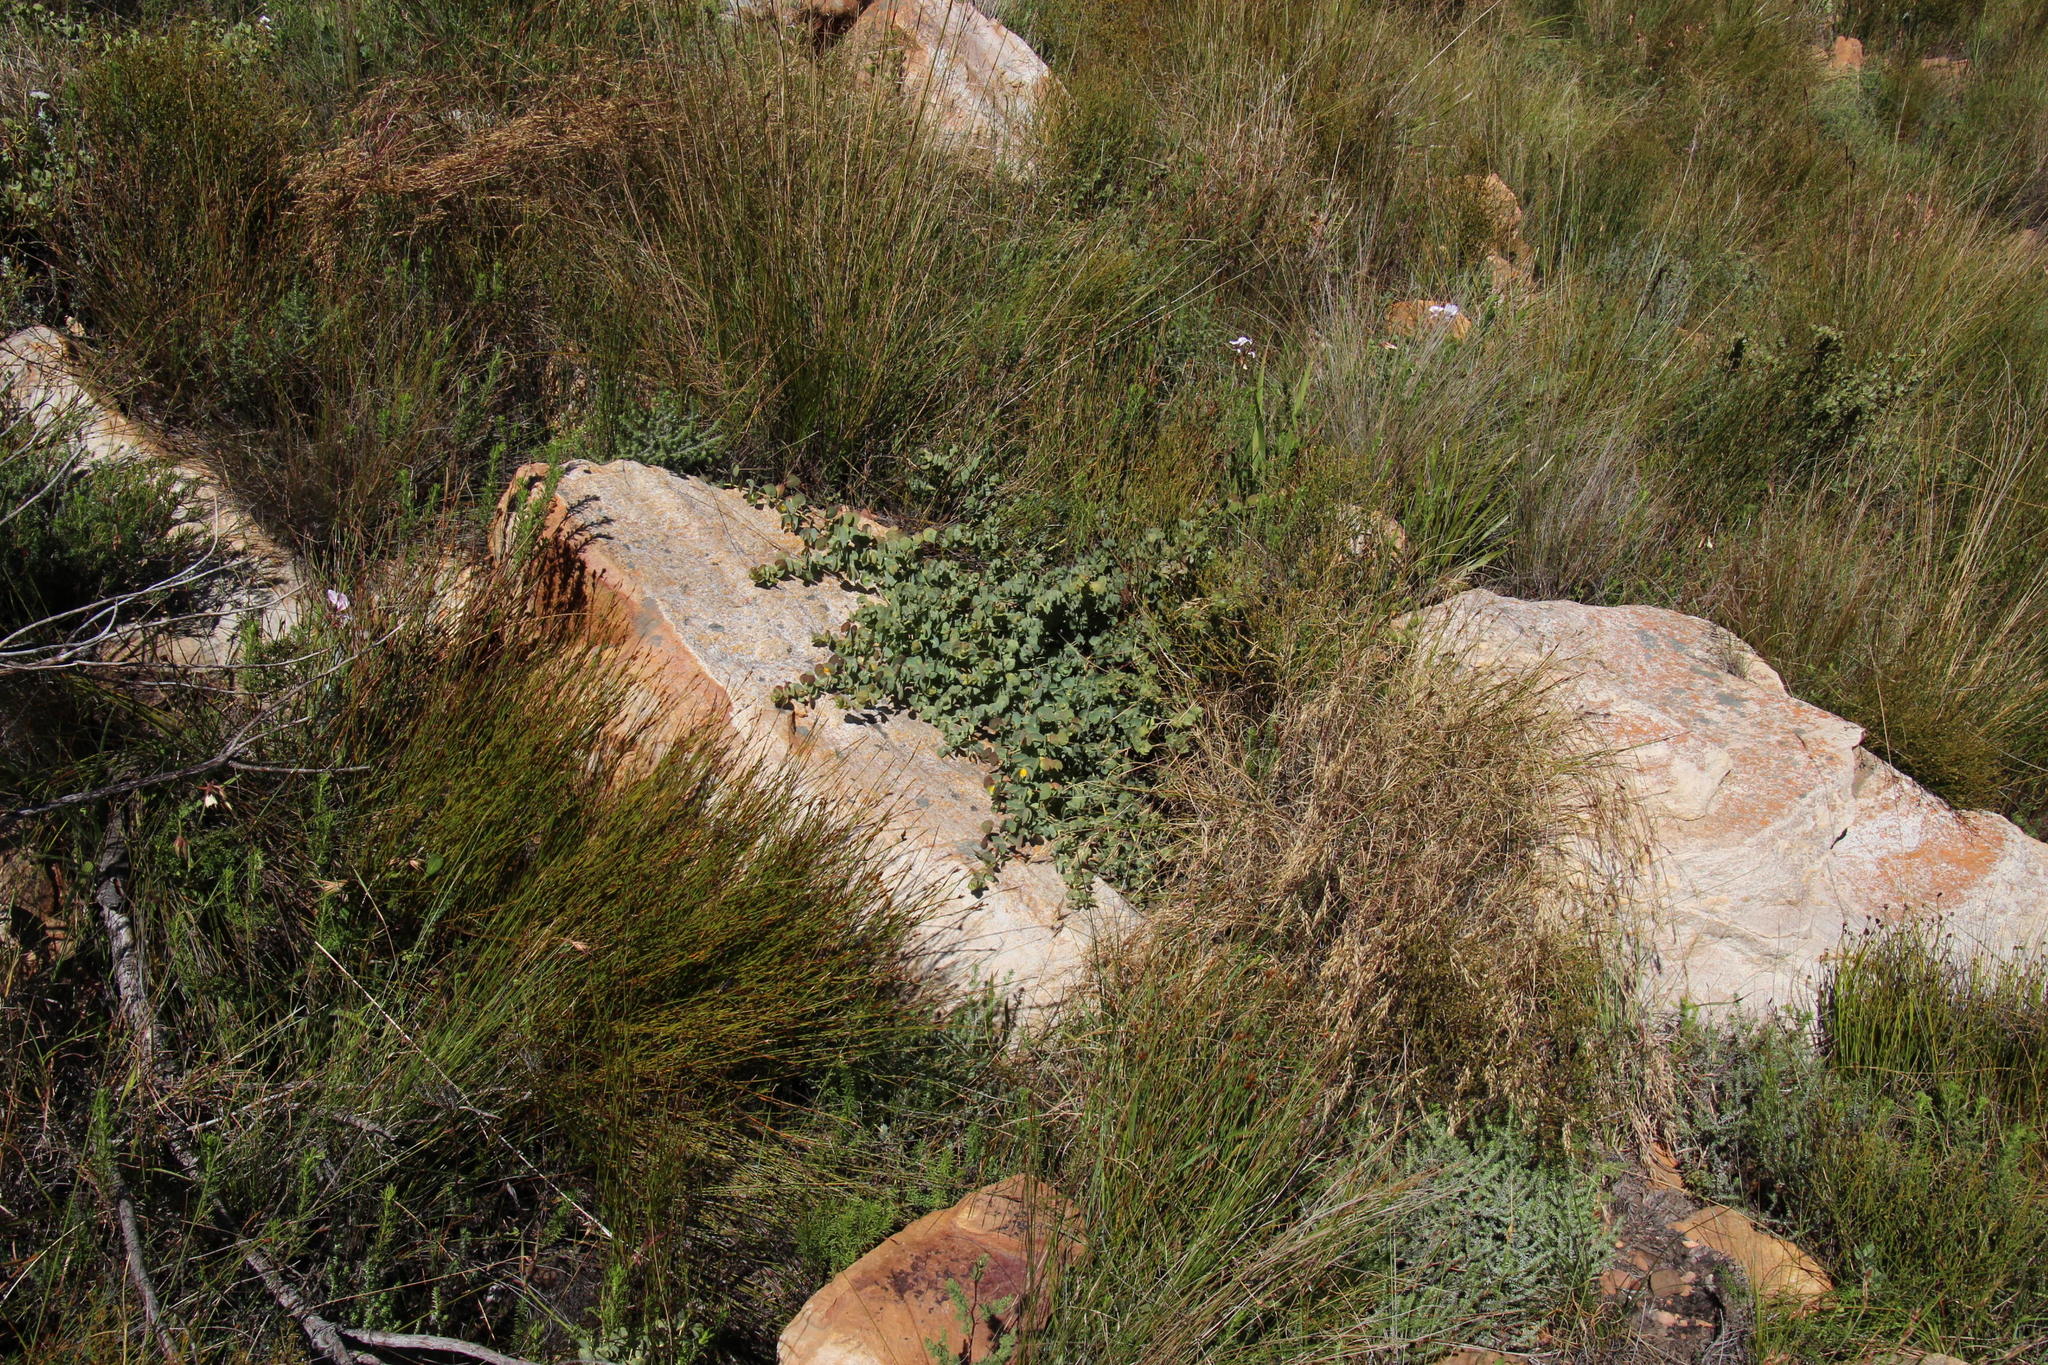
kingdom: Plantae
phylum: Tracheophyta
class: Magnoliopsida
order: Fabales
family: Fabaceae
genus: Rafnia
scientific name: Rafnia acuminata
